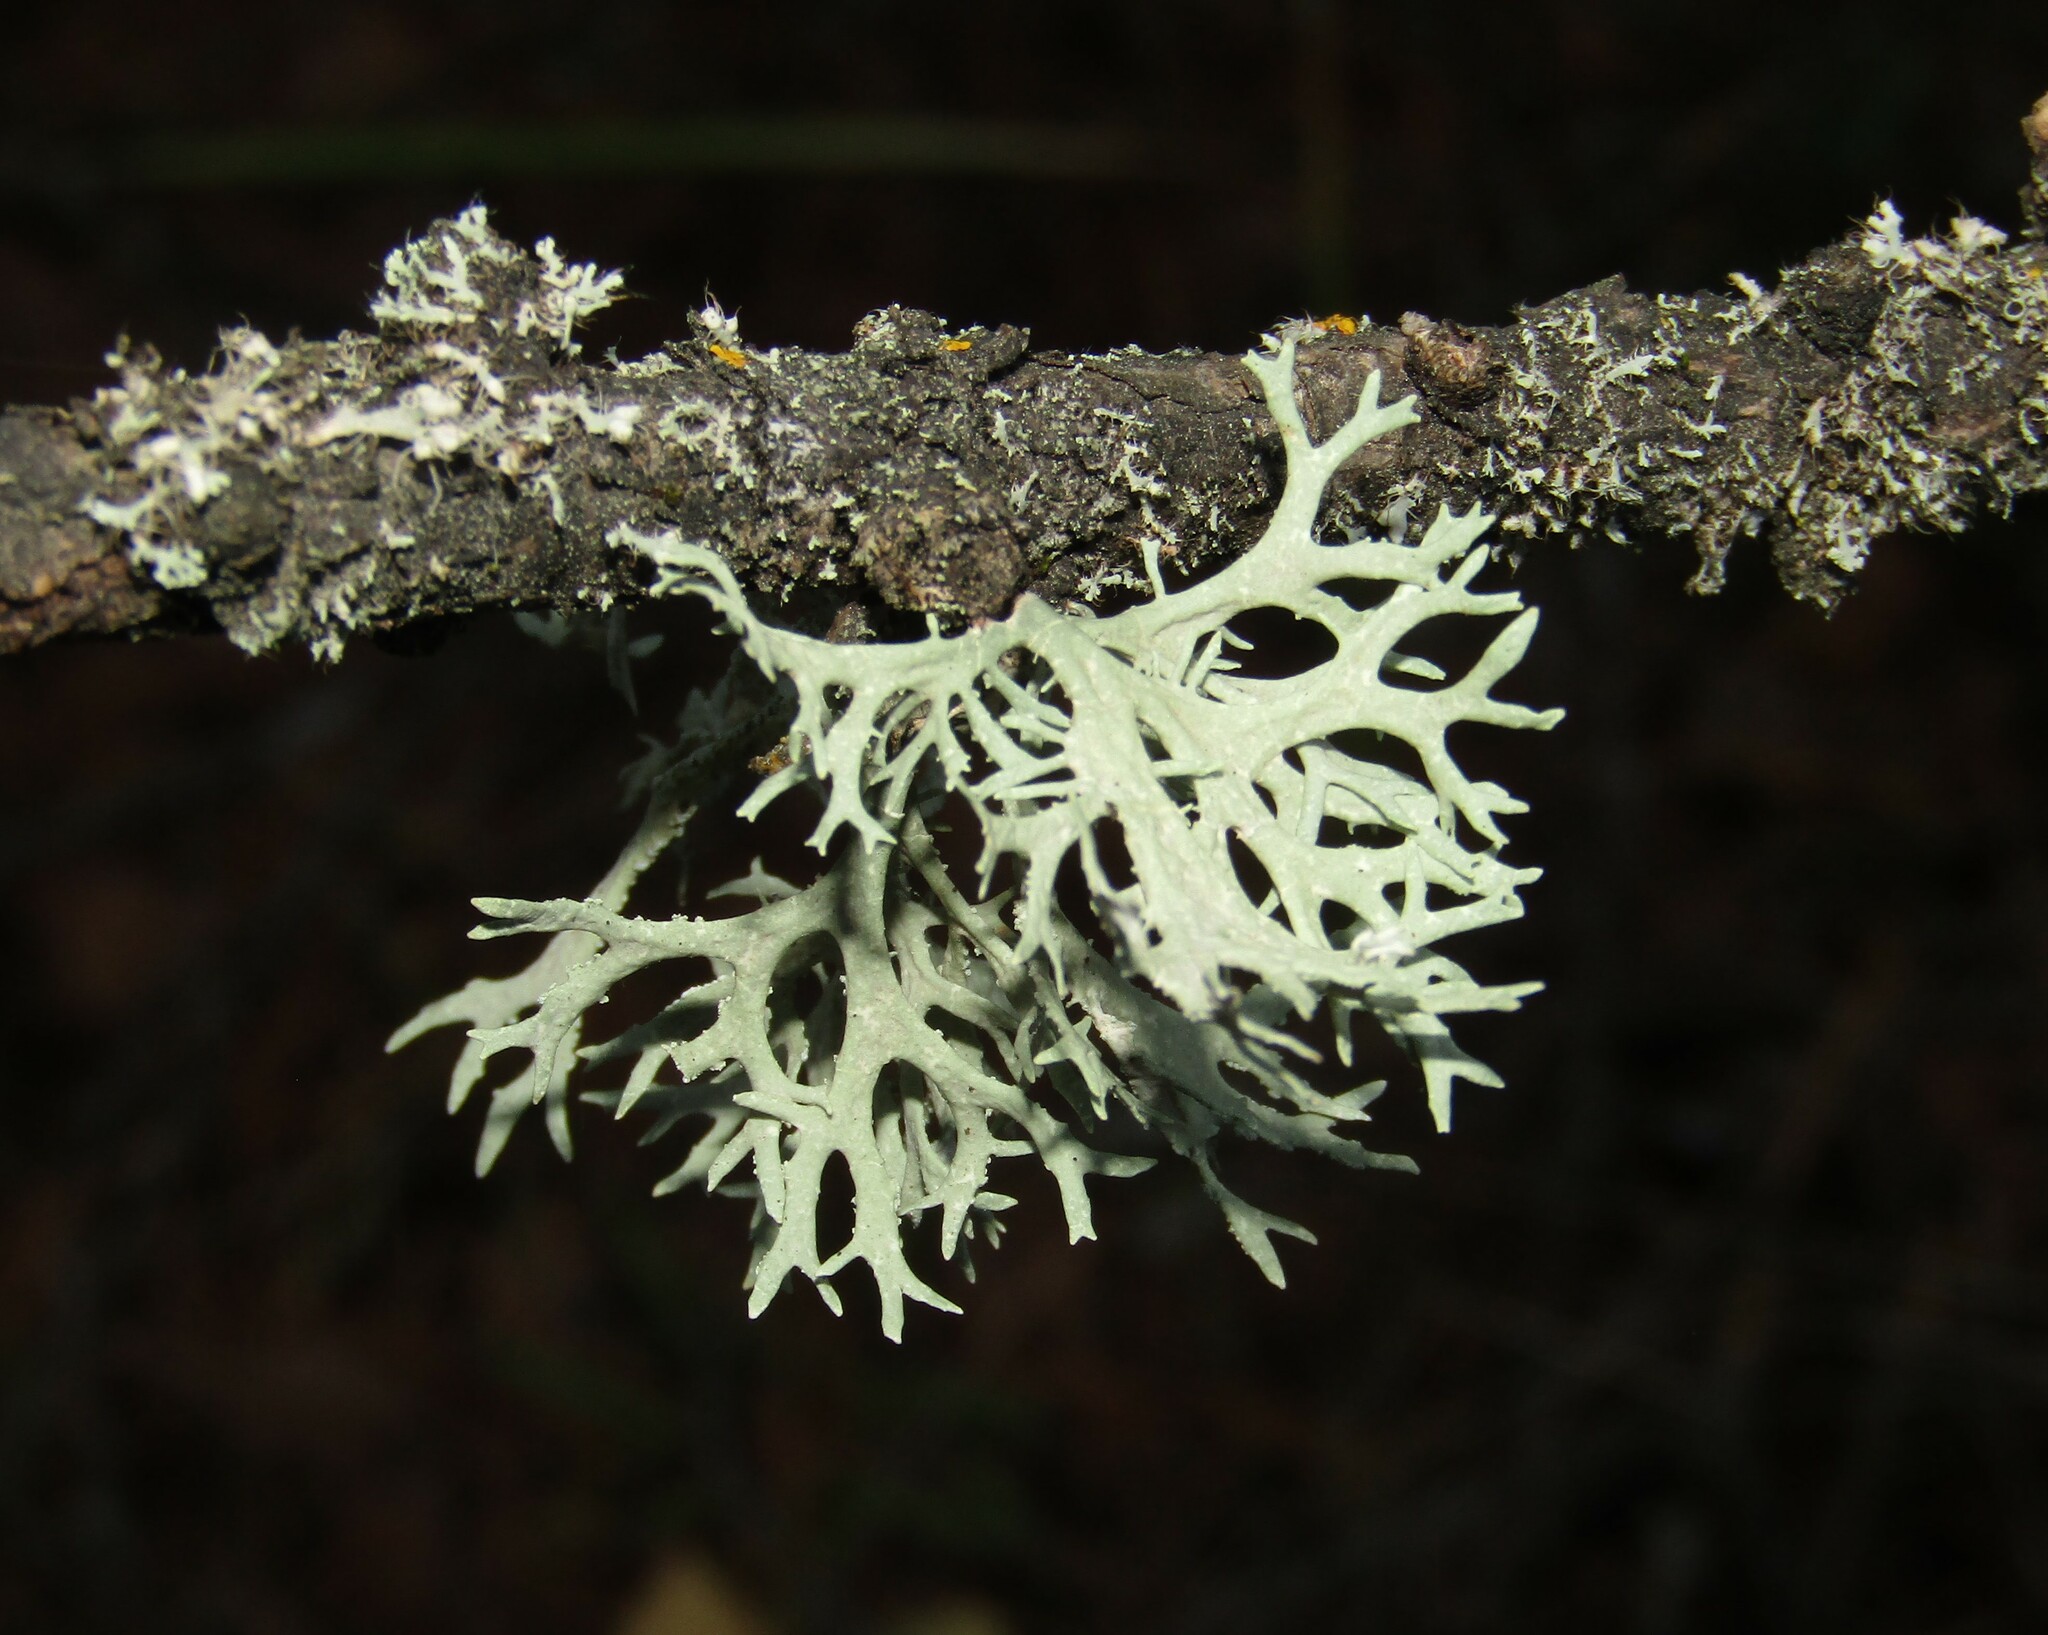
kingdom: Fungi
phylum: Ascomycota
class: Lecanoromycetes
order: Lecanorales
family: Parmeliaceae
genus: Evernia
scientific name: Evernia prunastri
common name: Oak moss
